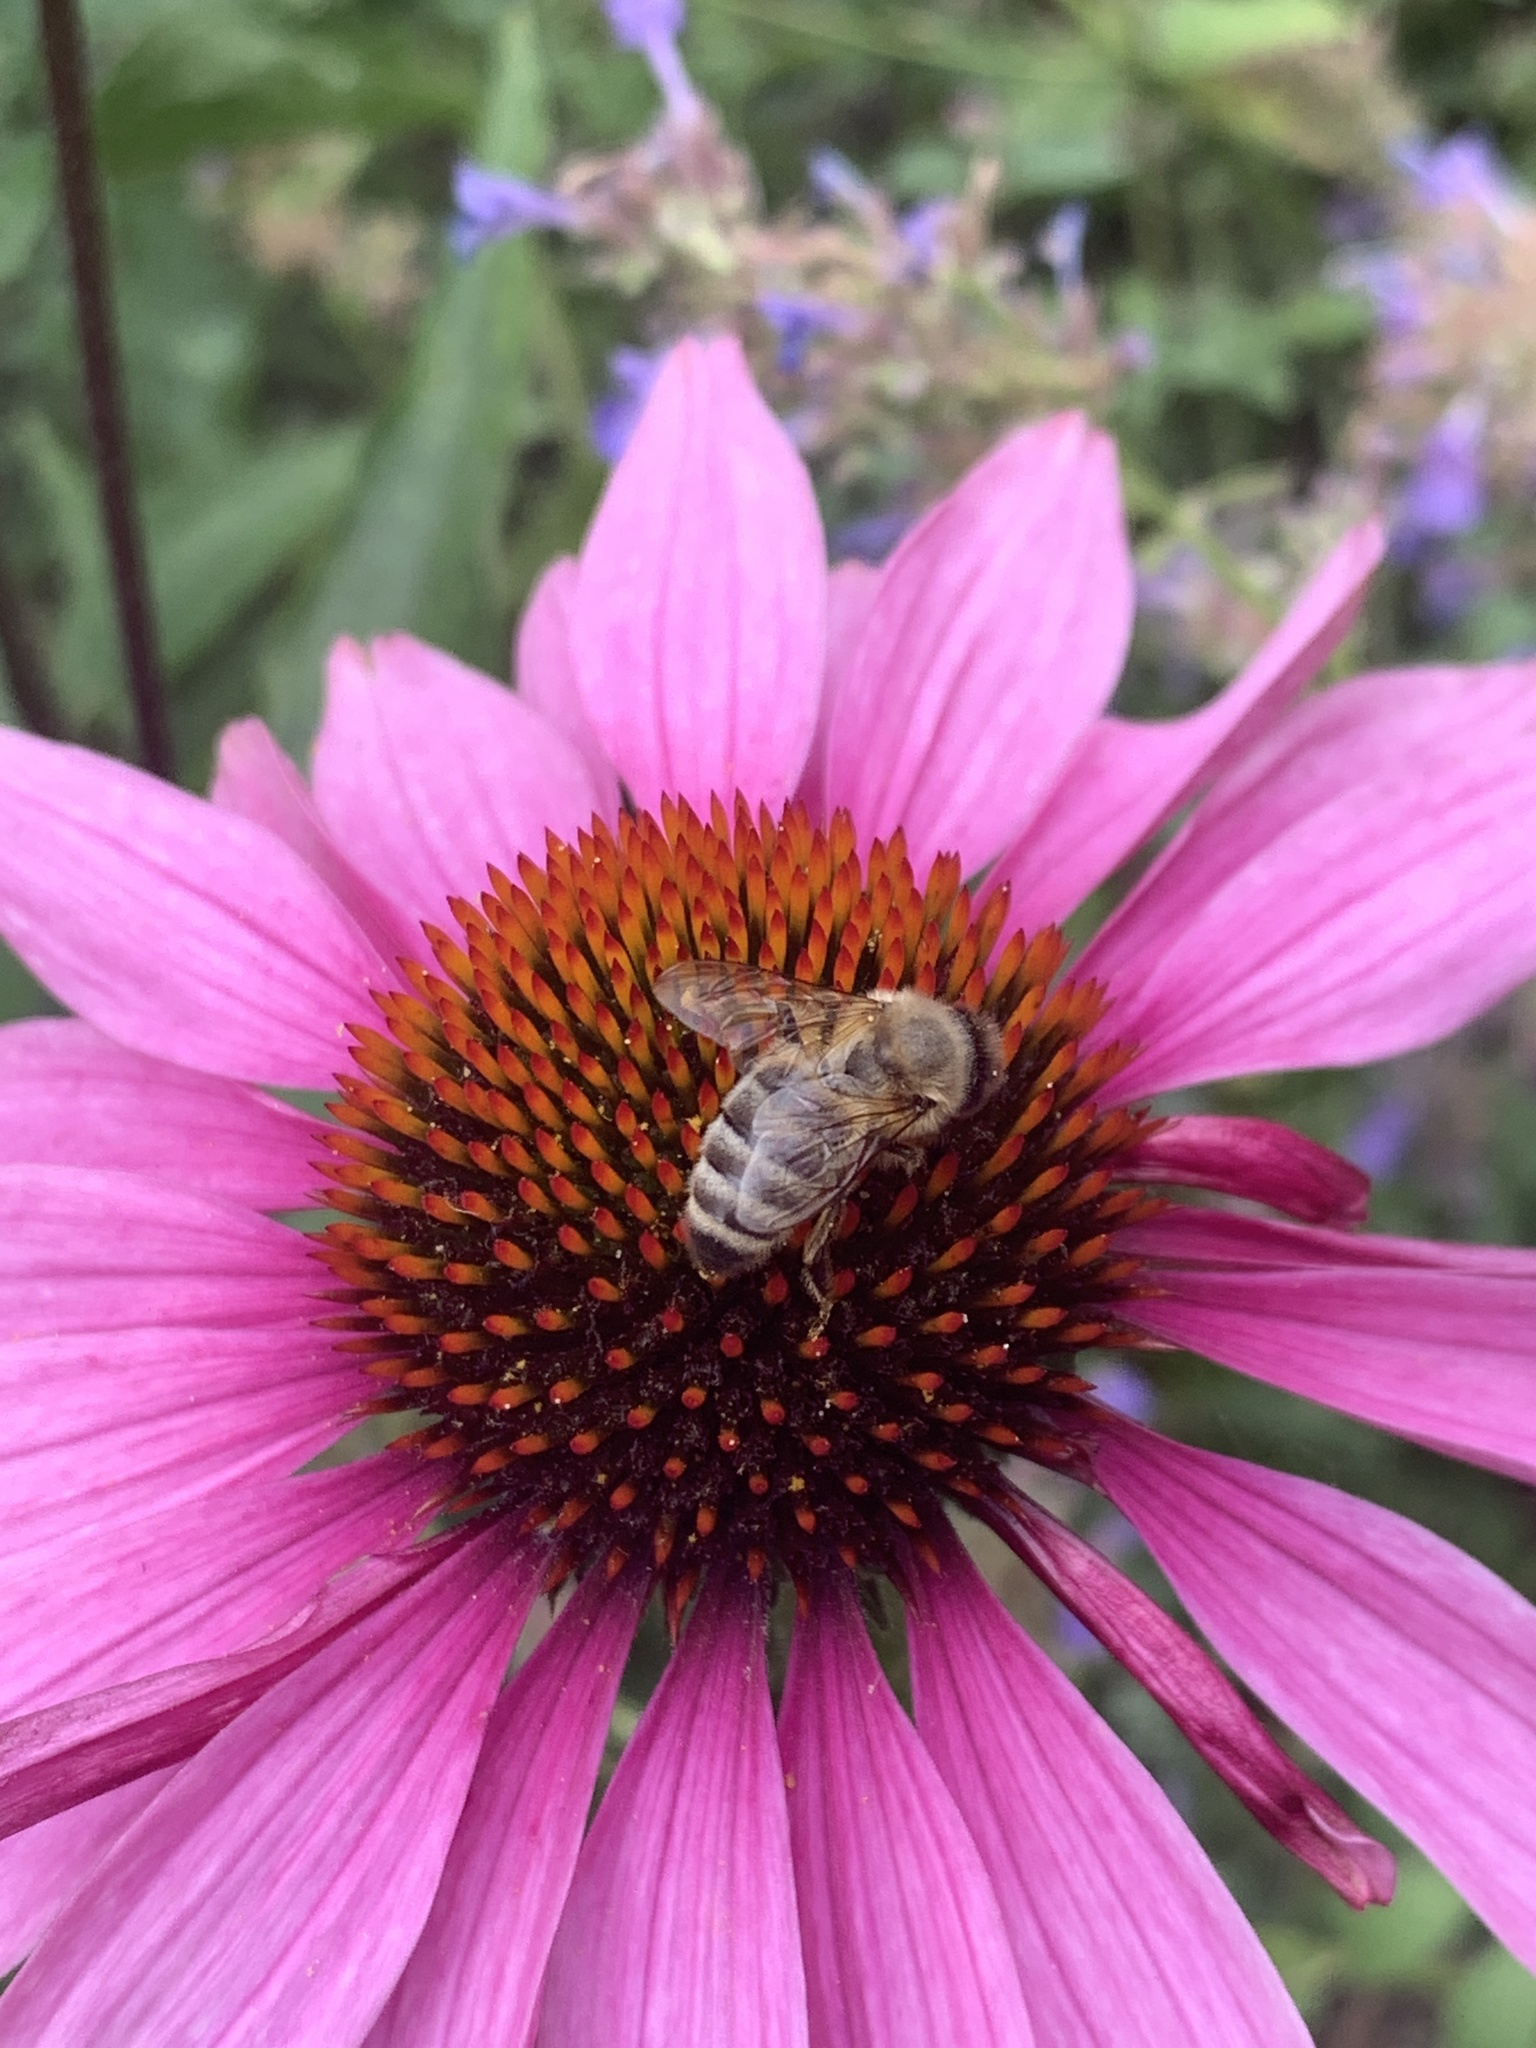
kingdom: Animalia
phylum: Arthropoda
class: Insecta
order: Hymenoptera
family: Apidae
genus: Apis
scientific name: Apis mellifera
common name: Honey bee
